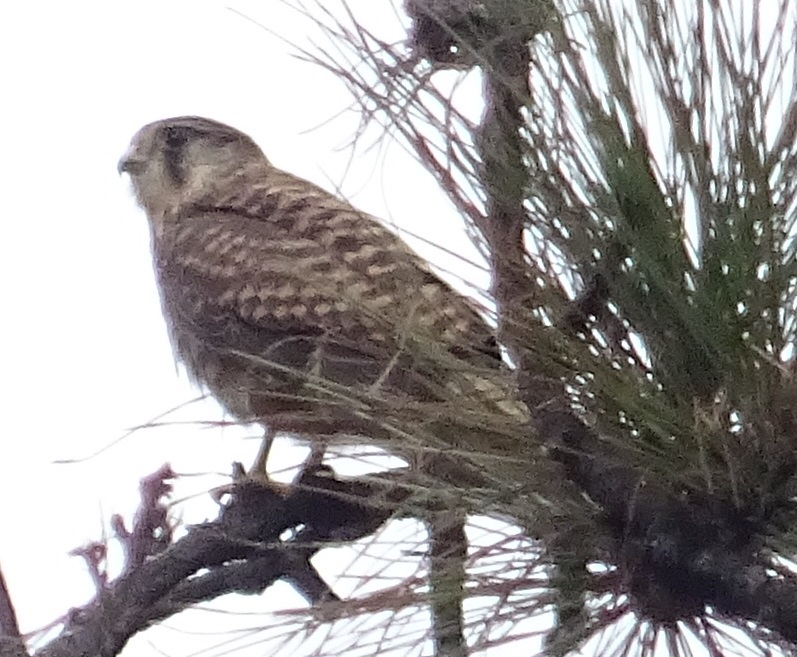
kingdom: Animalia
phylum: Chordata
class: Aves
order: Falconiformes
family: Falconidae
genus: Falco
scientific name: Falco tinnunculus
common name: Common kestrel
